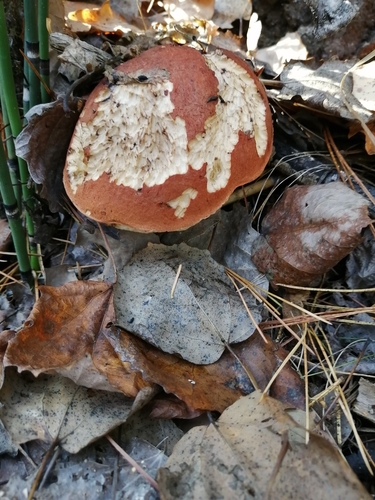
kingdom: Fungi
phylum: Basidiomycota
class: Agaricomycetes
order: Boletales
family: Boletaceae
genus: Leccinum
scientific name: Leccinum aurantiacum
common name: Orange bolete
